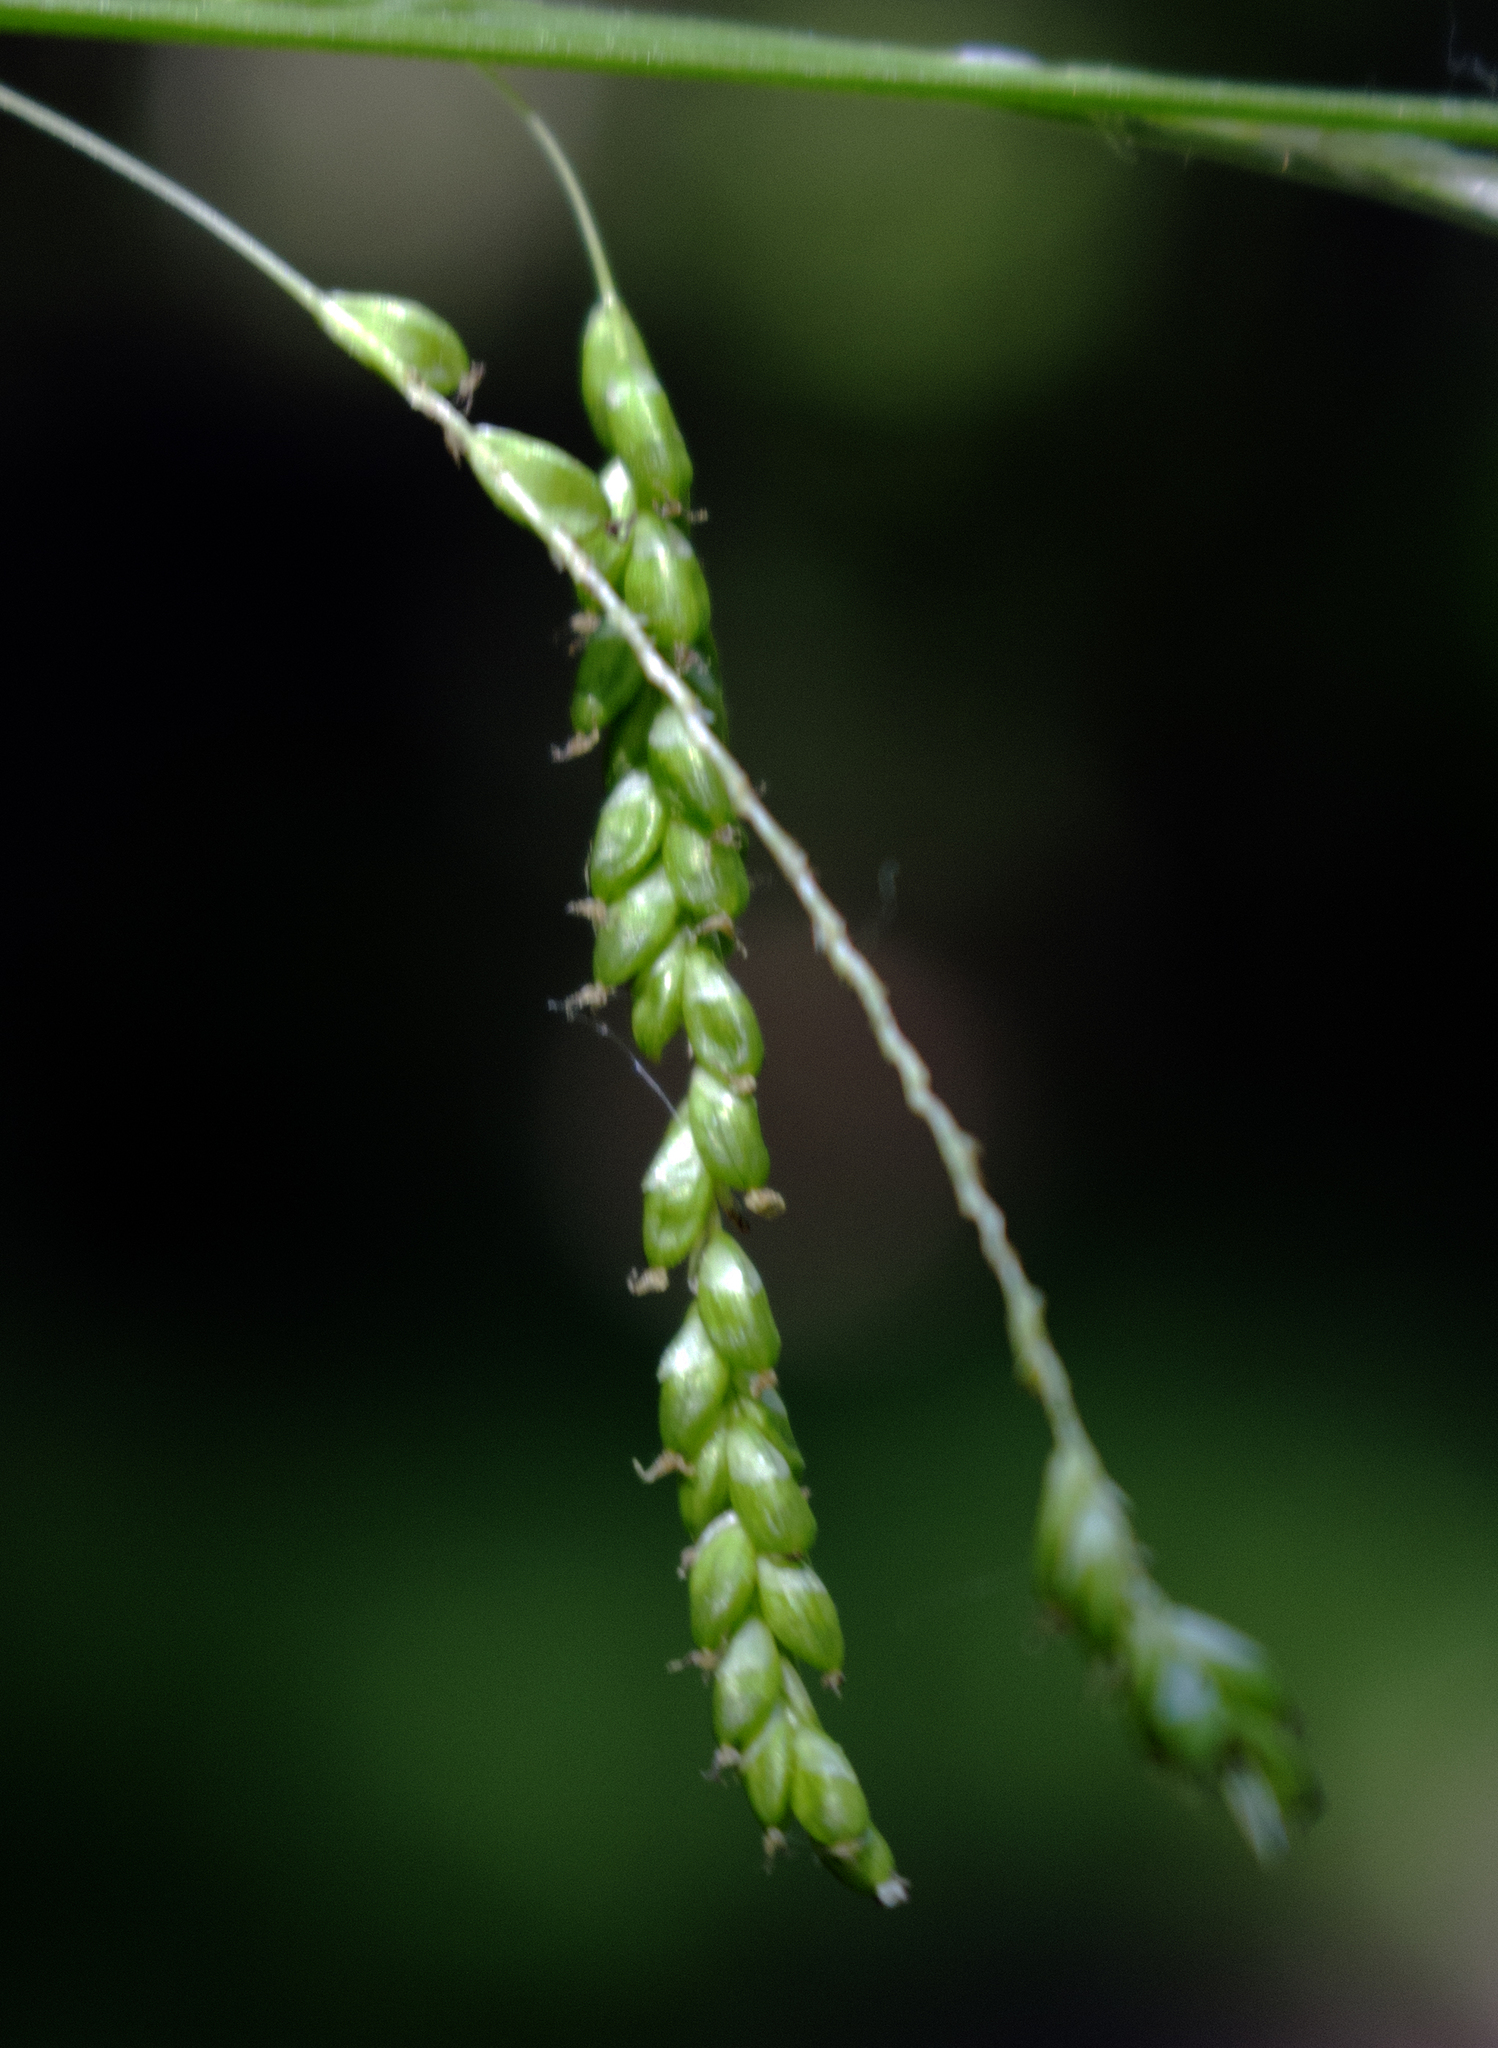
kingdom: Plantae
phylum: Tracheophyta
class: Liliopsida
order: Poales
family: Cyperaceae
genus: Carex
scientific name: Carex gracillima
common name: Graceful sedge
